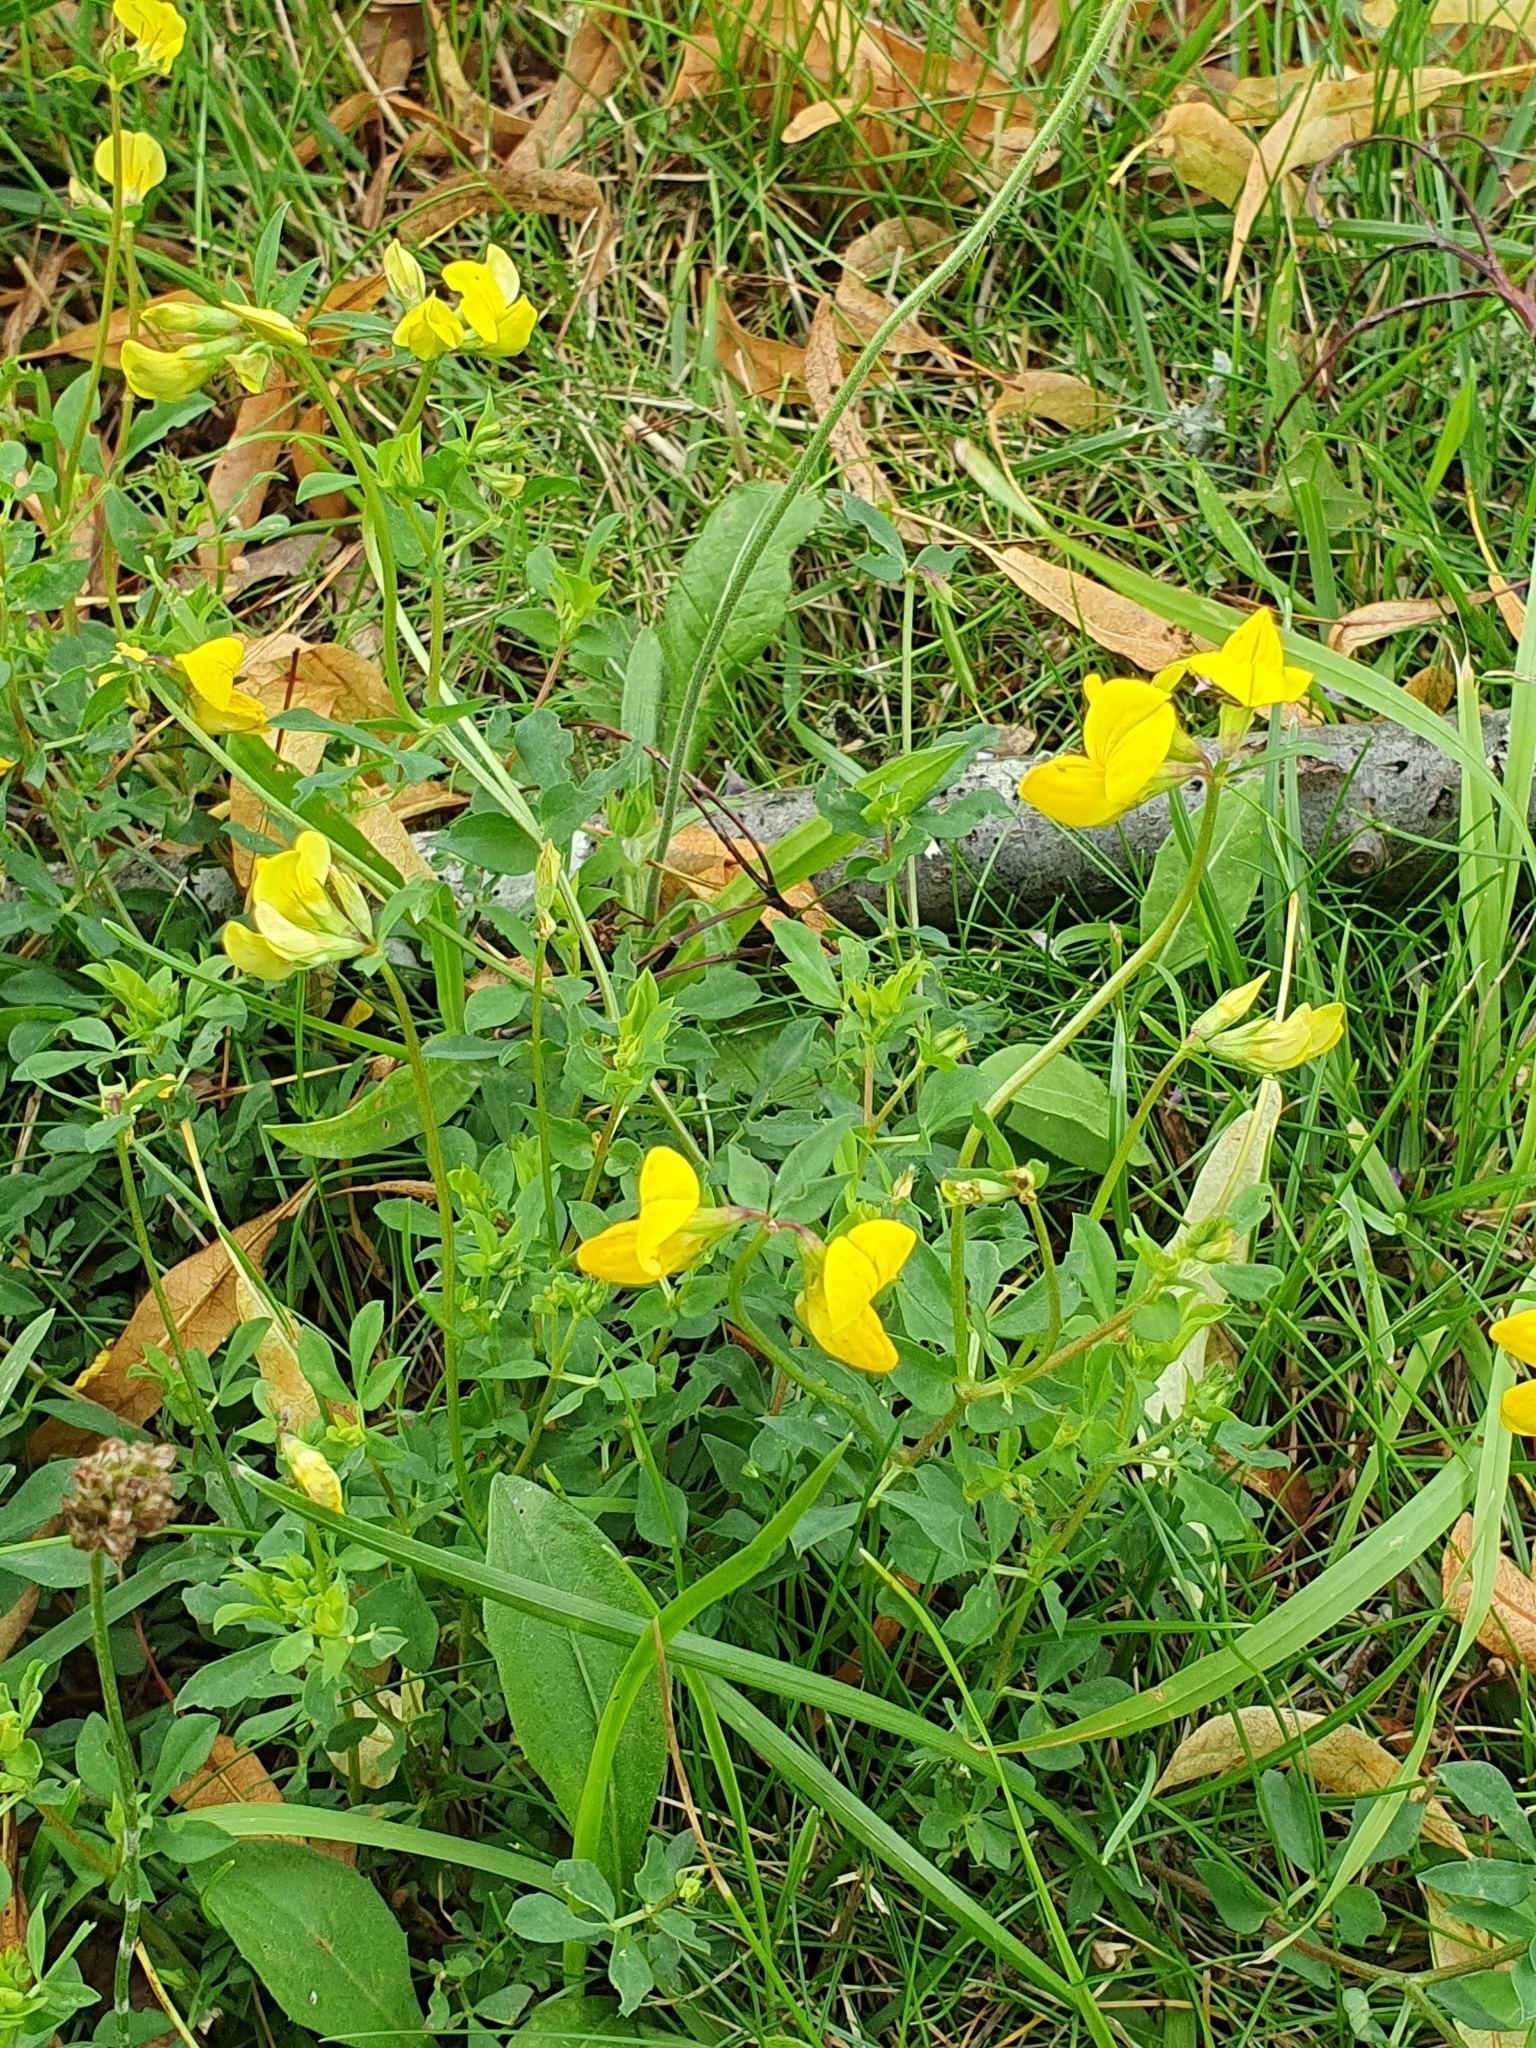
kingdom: Plantae
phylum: Tracheophyta
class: Magnoliopsida
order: Fabales
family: Fabaceae
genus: Lotus
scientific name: Lotus corniculatus
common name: Common bird's-foot-trefoil
